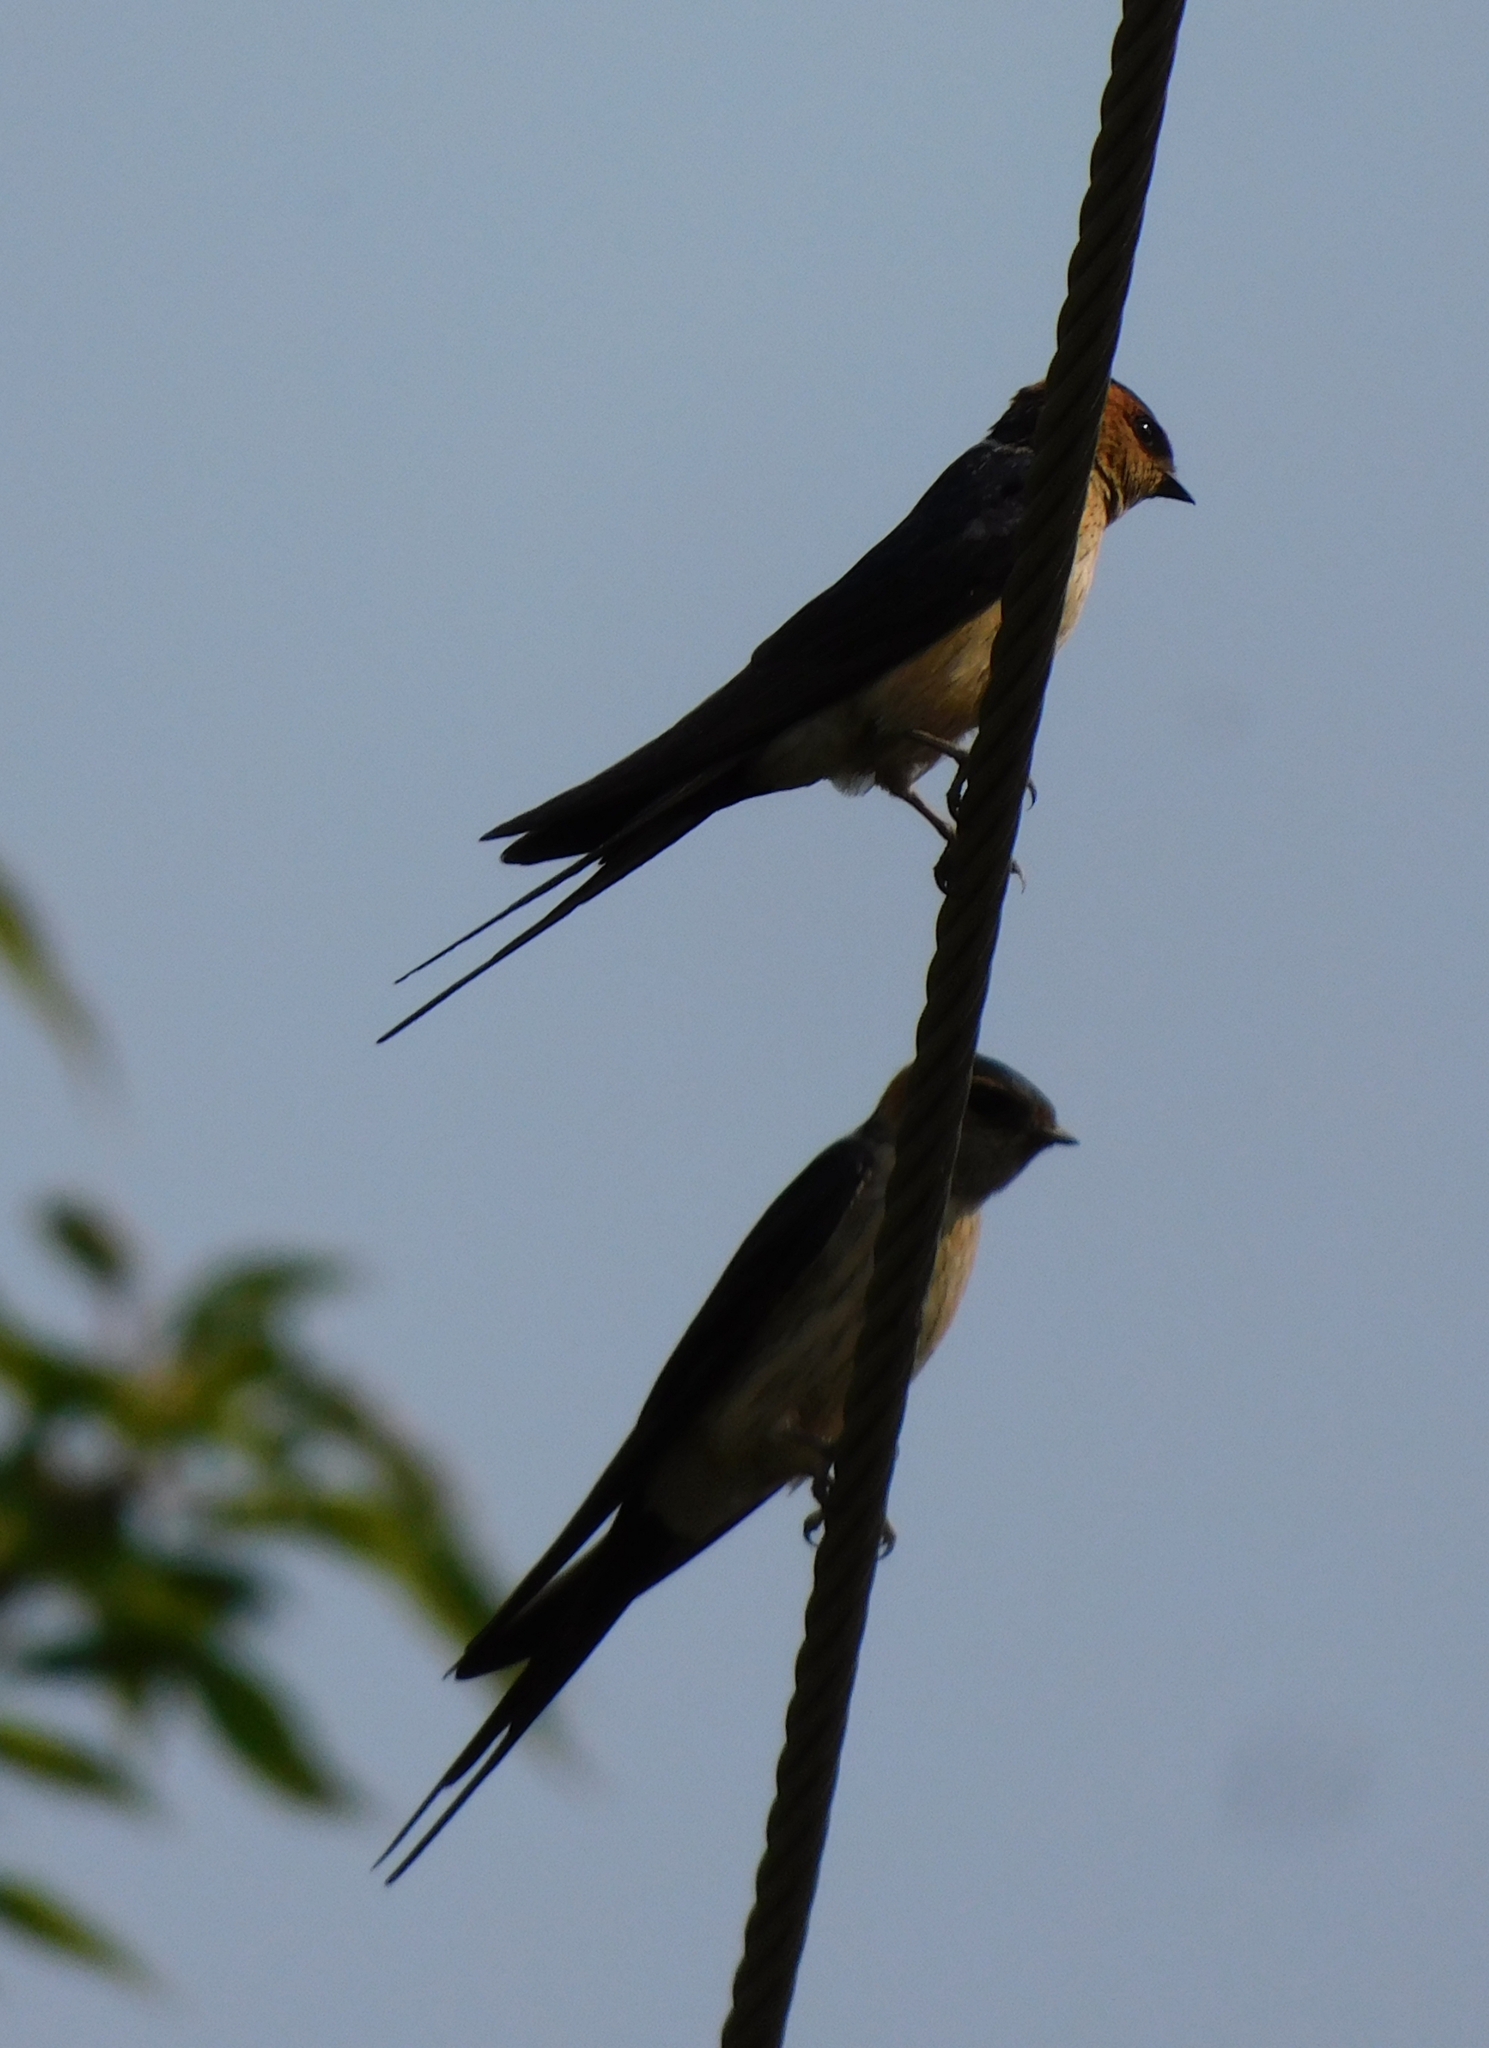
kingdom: Animalia
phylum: Chordata
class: Aves
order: Passeriformes
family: Hirundinidae
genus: Cecropis
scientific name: Cecropis daurica
